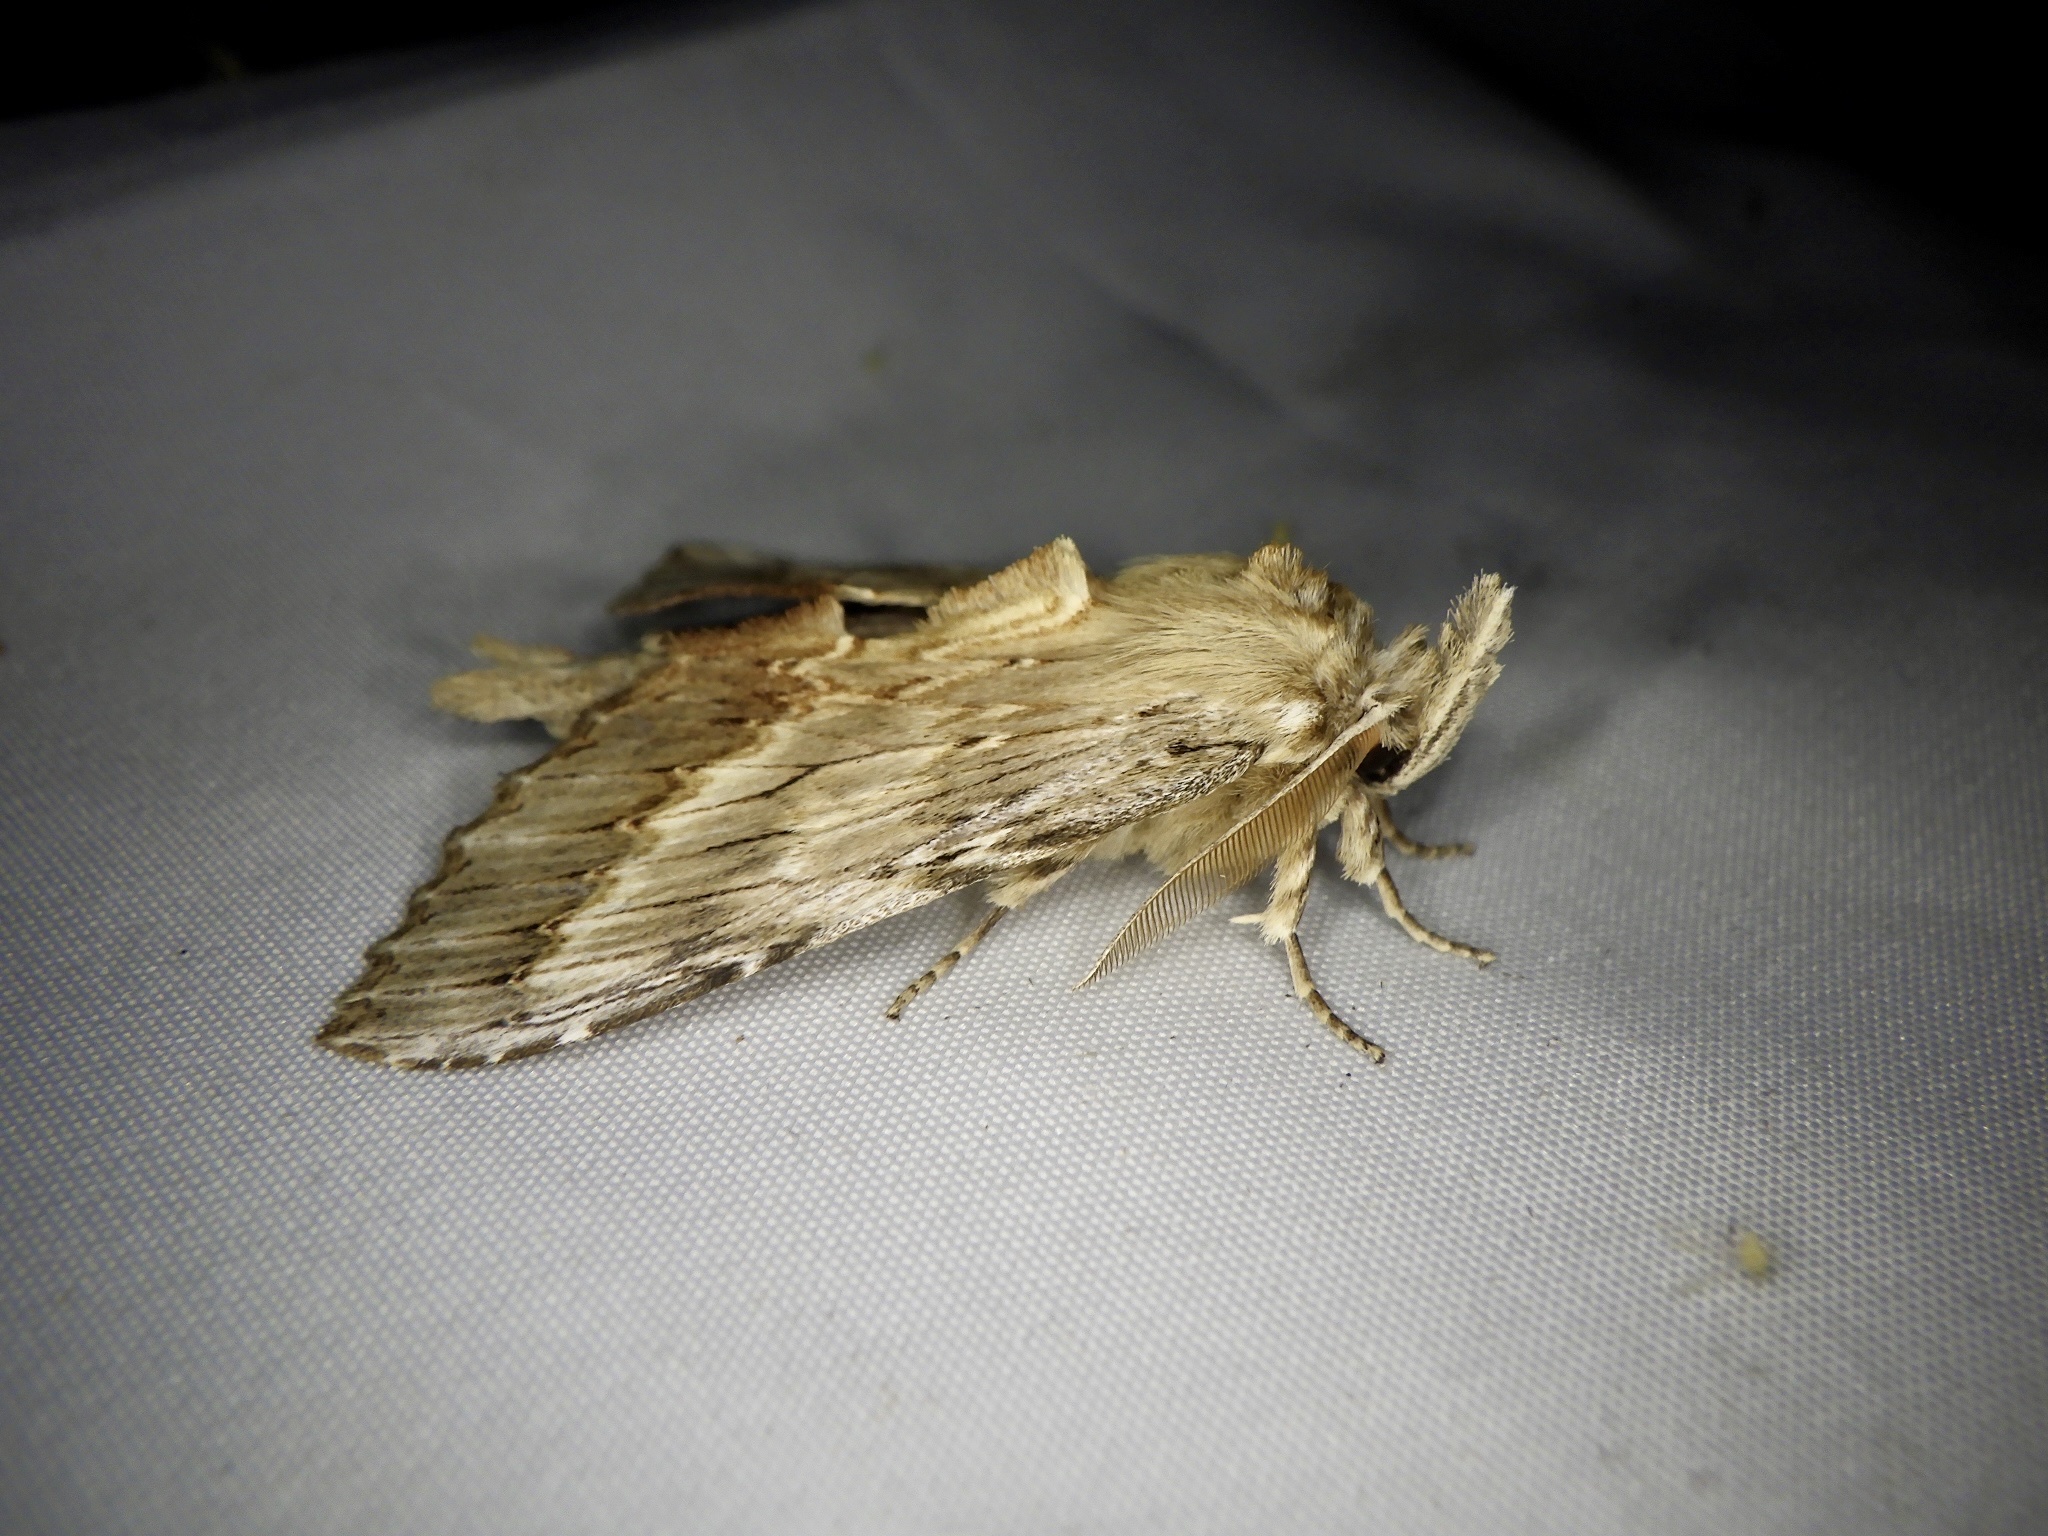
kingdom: Animalia
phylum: Arthropoda
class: Insecta
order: Lepidoptera
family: Notodontidae
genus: Pterostoma
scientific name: Pterostoma gigantina
